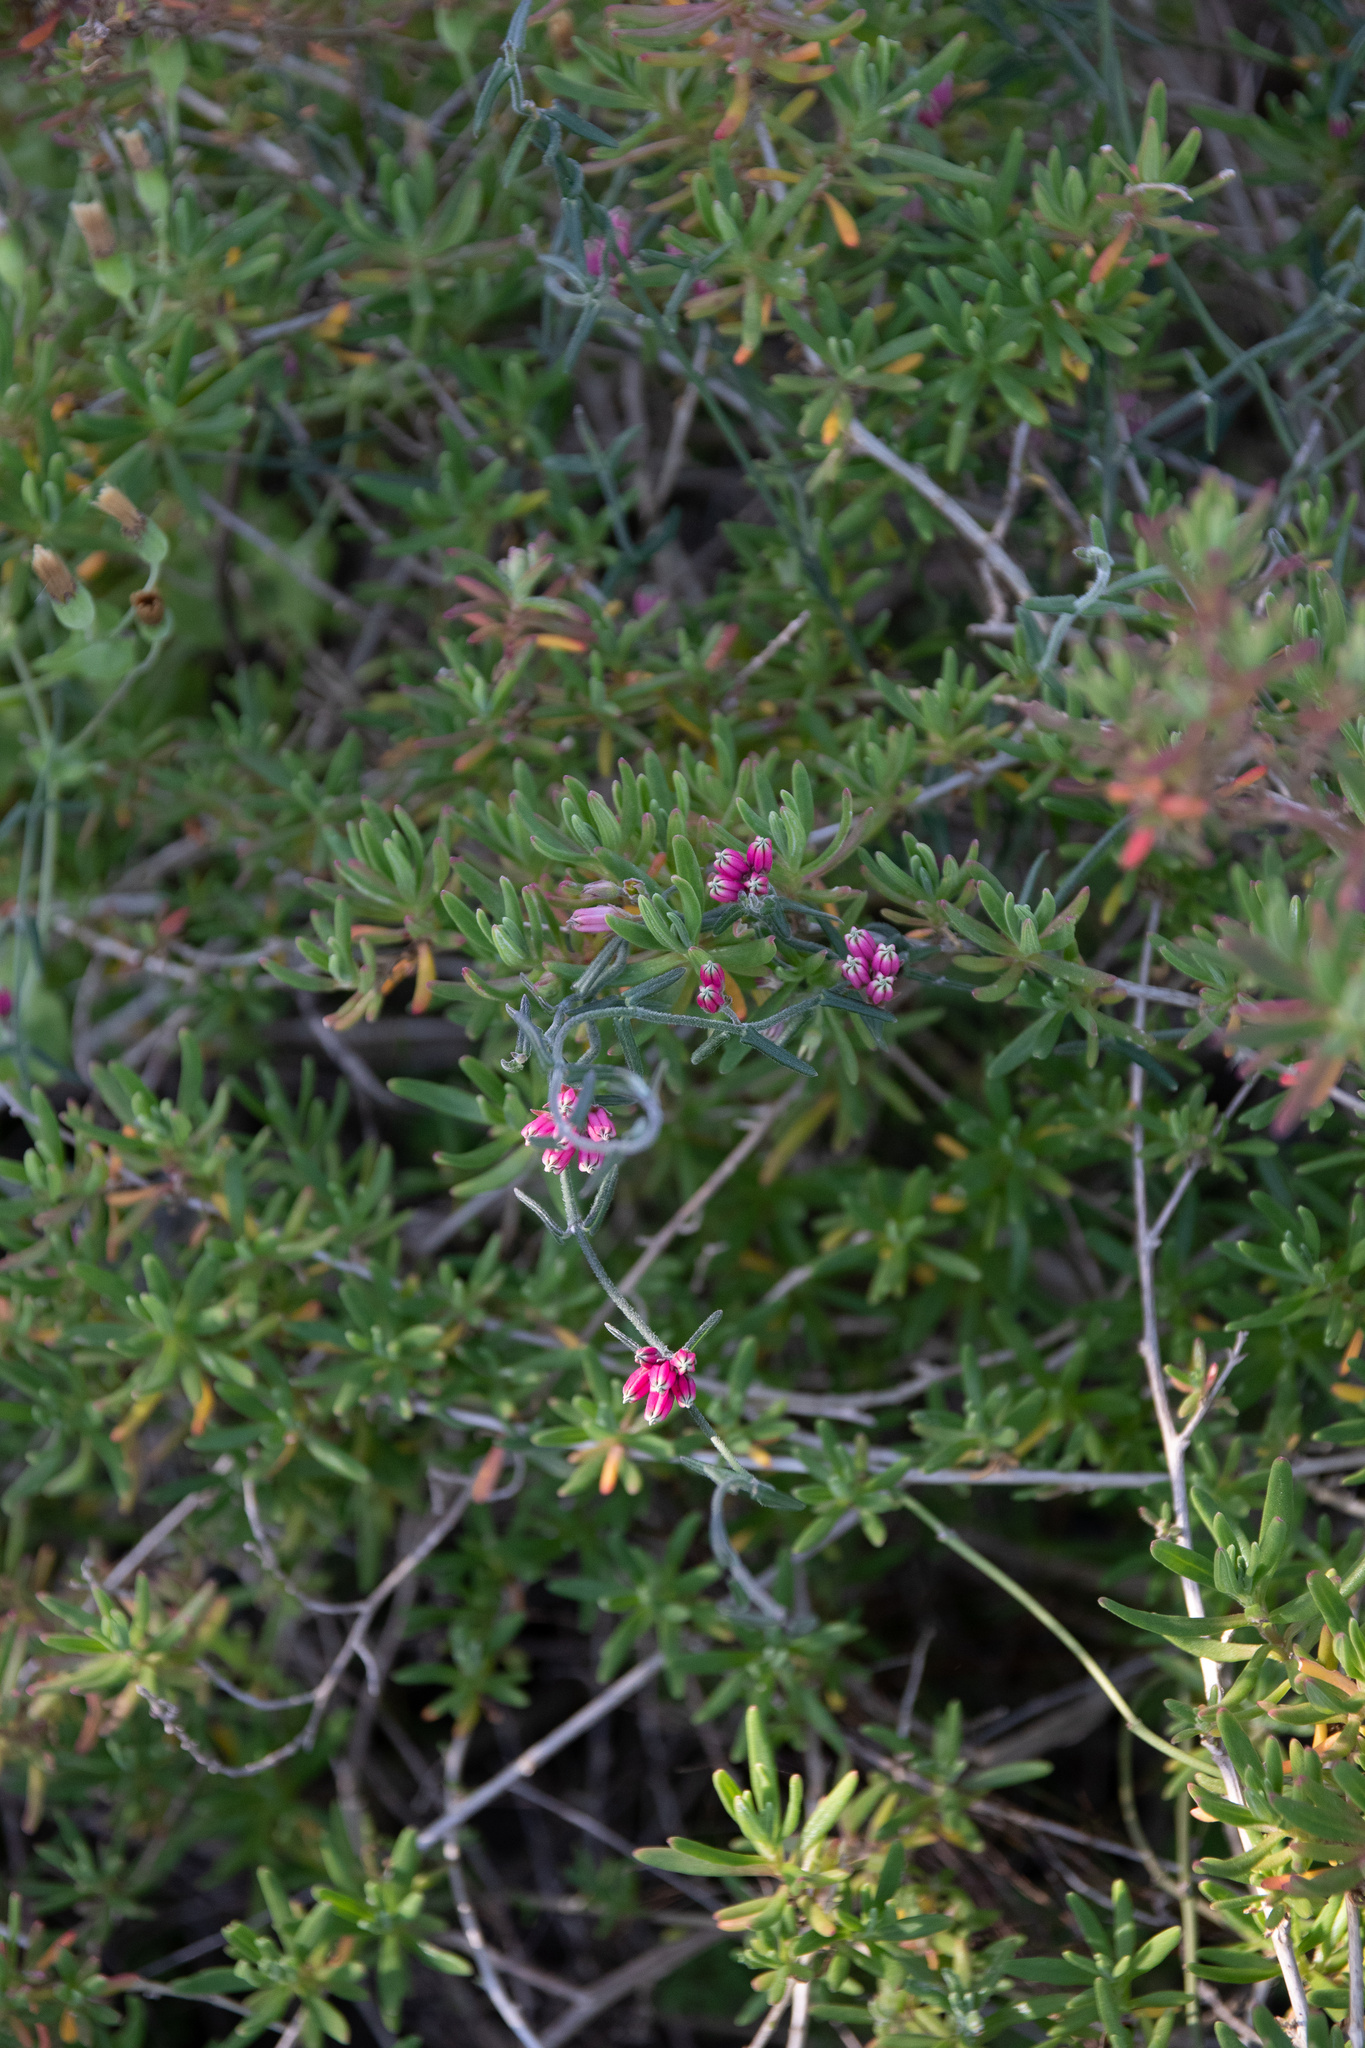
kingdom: Plantae
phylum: Tracheophyta
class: Magnoliopsida
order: Gentianales
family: Apocynaceae
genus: Microloma
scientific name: Microloma sagittatum
